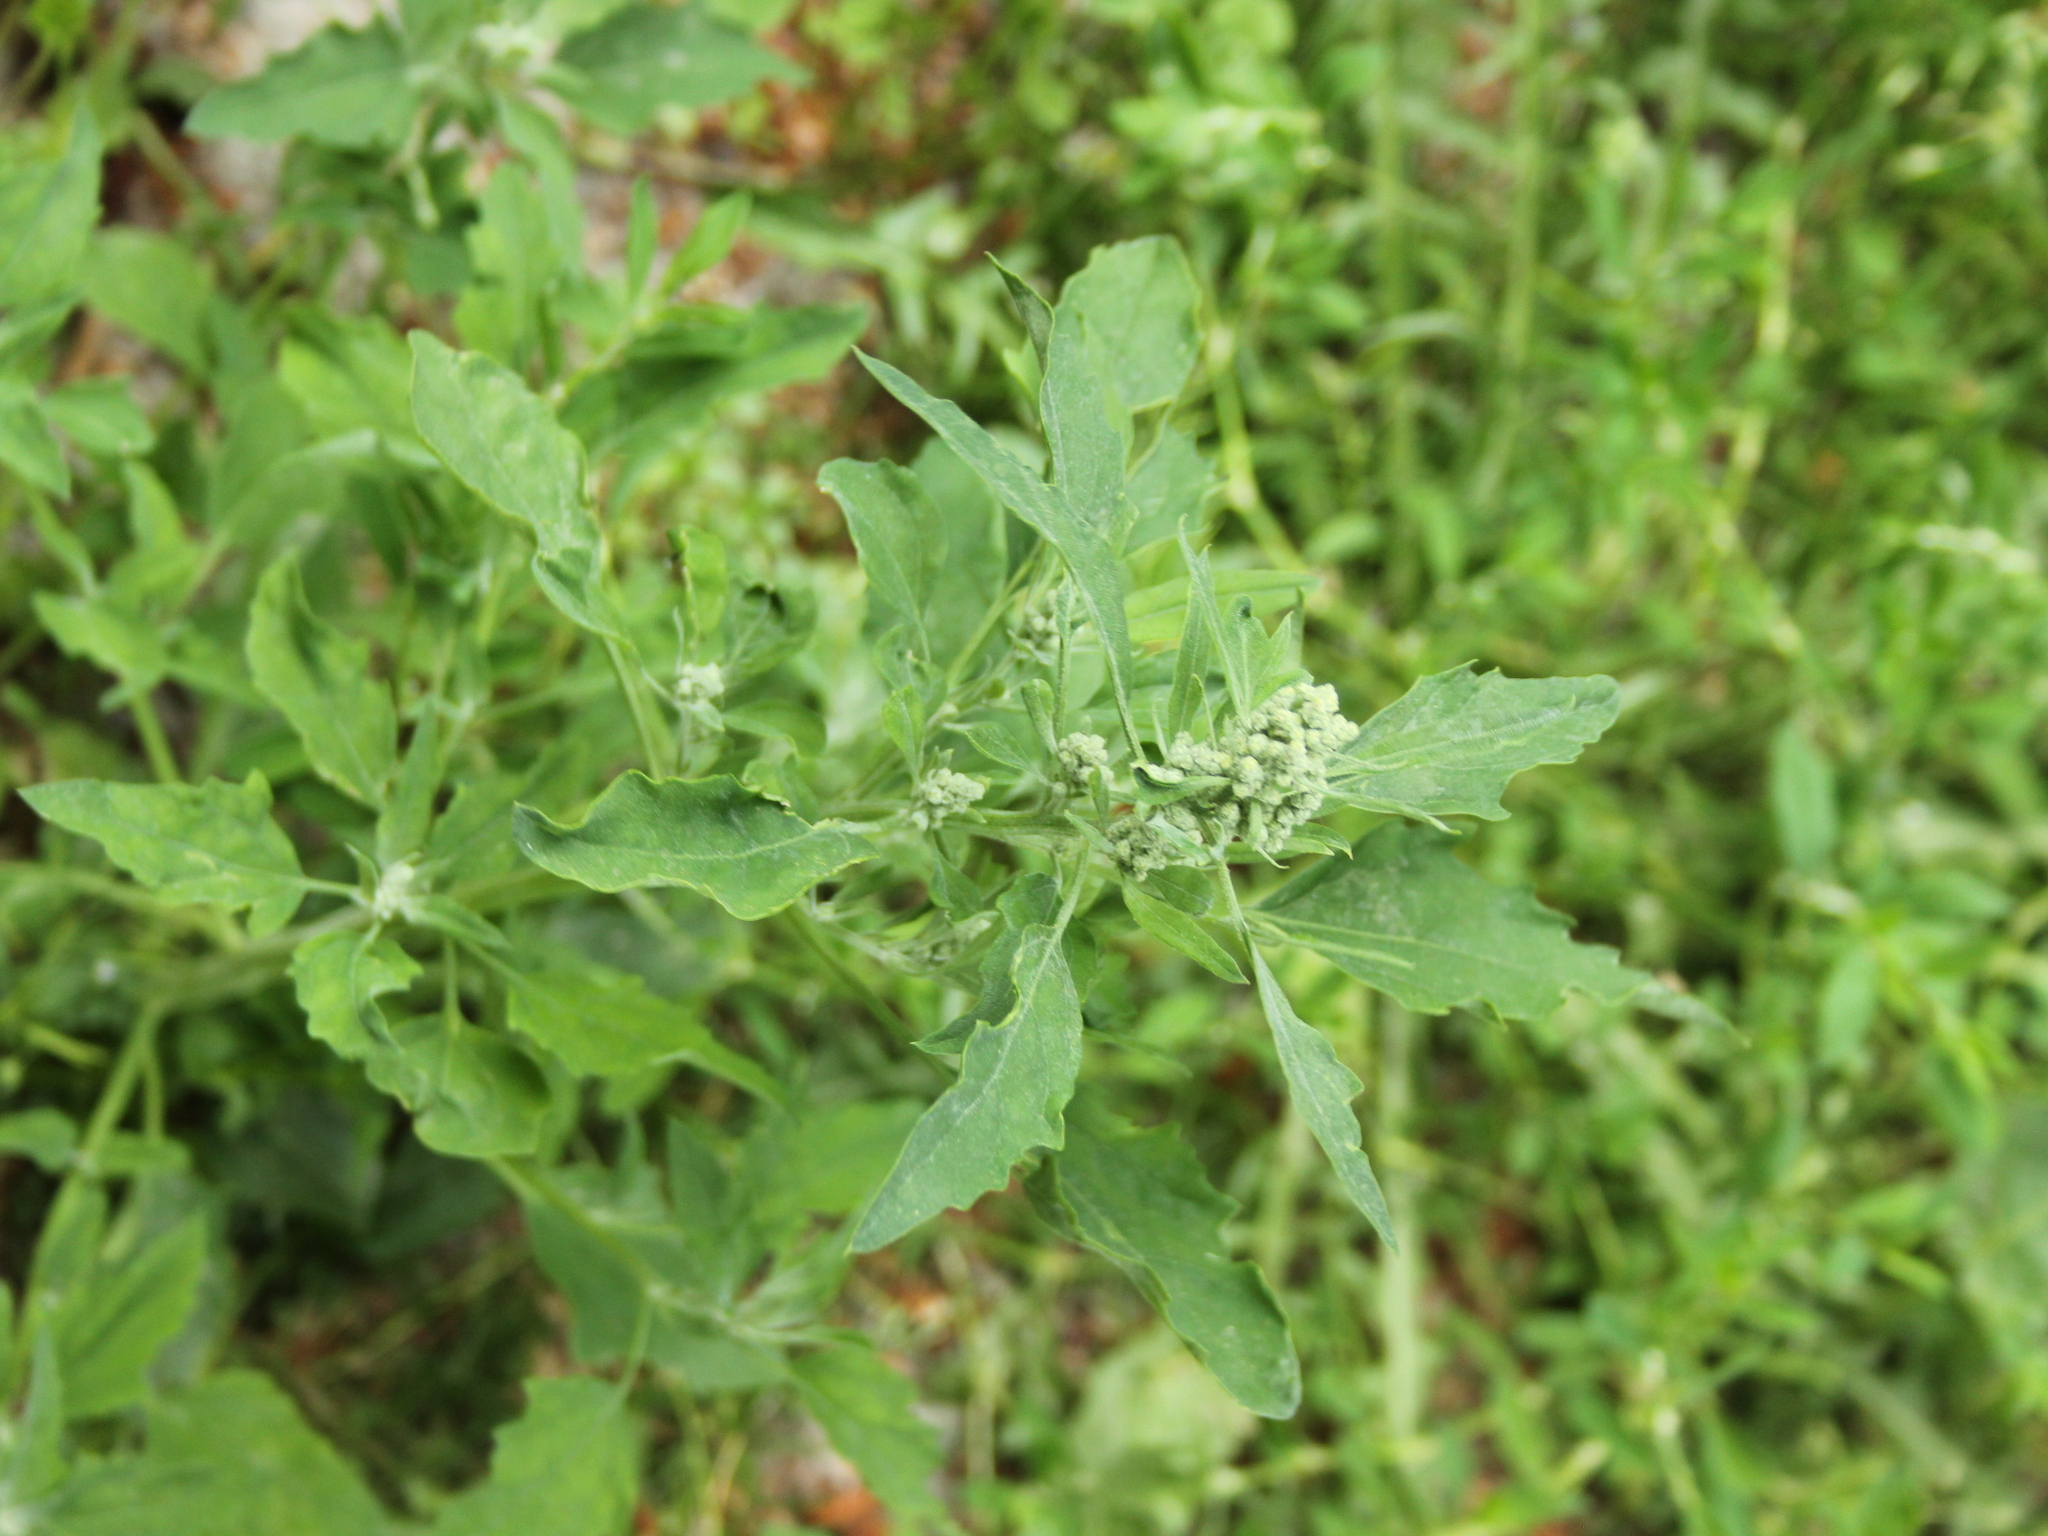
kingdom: Plantae
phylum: Tracheophyta
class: Magnoliopsida
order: Caryophyllales
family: Amaranthaceae
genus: Chenopodium
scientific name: Chenopodium album
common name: Fat-hen
